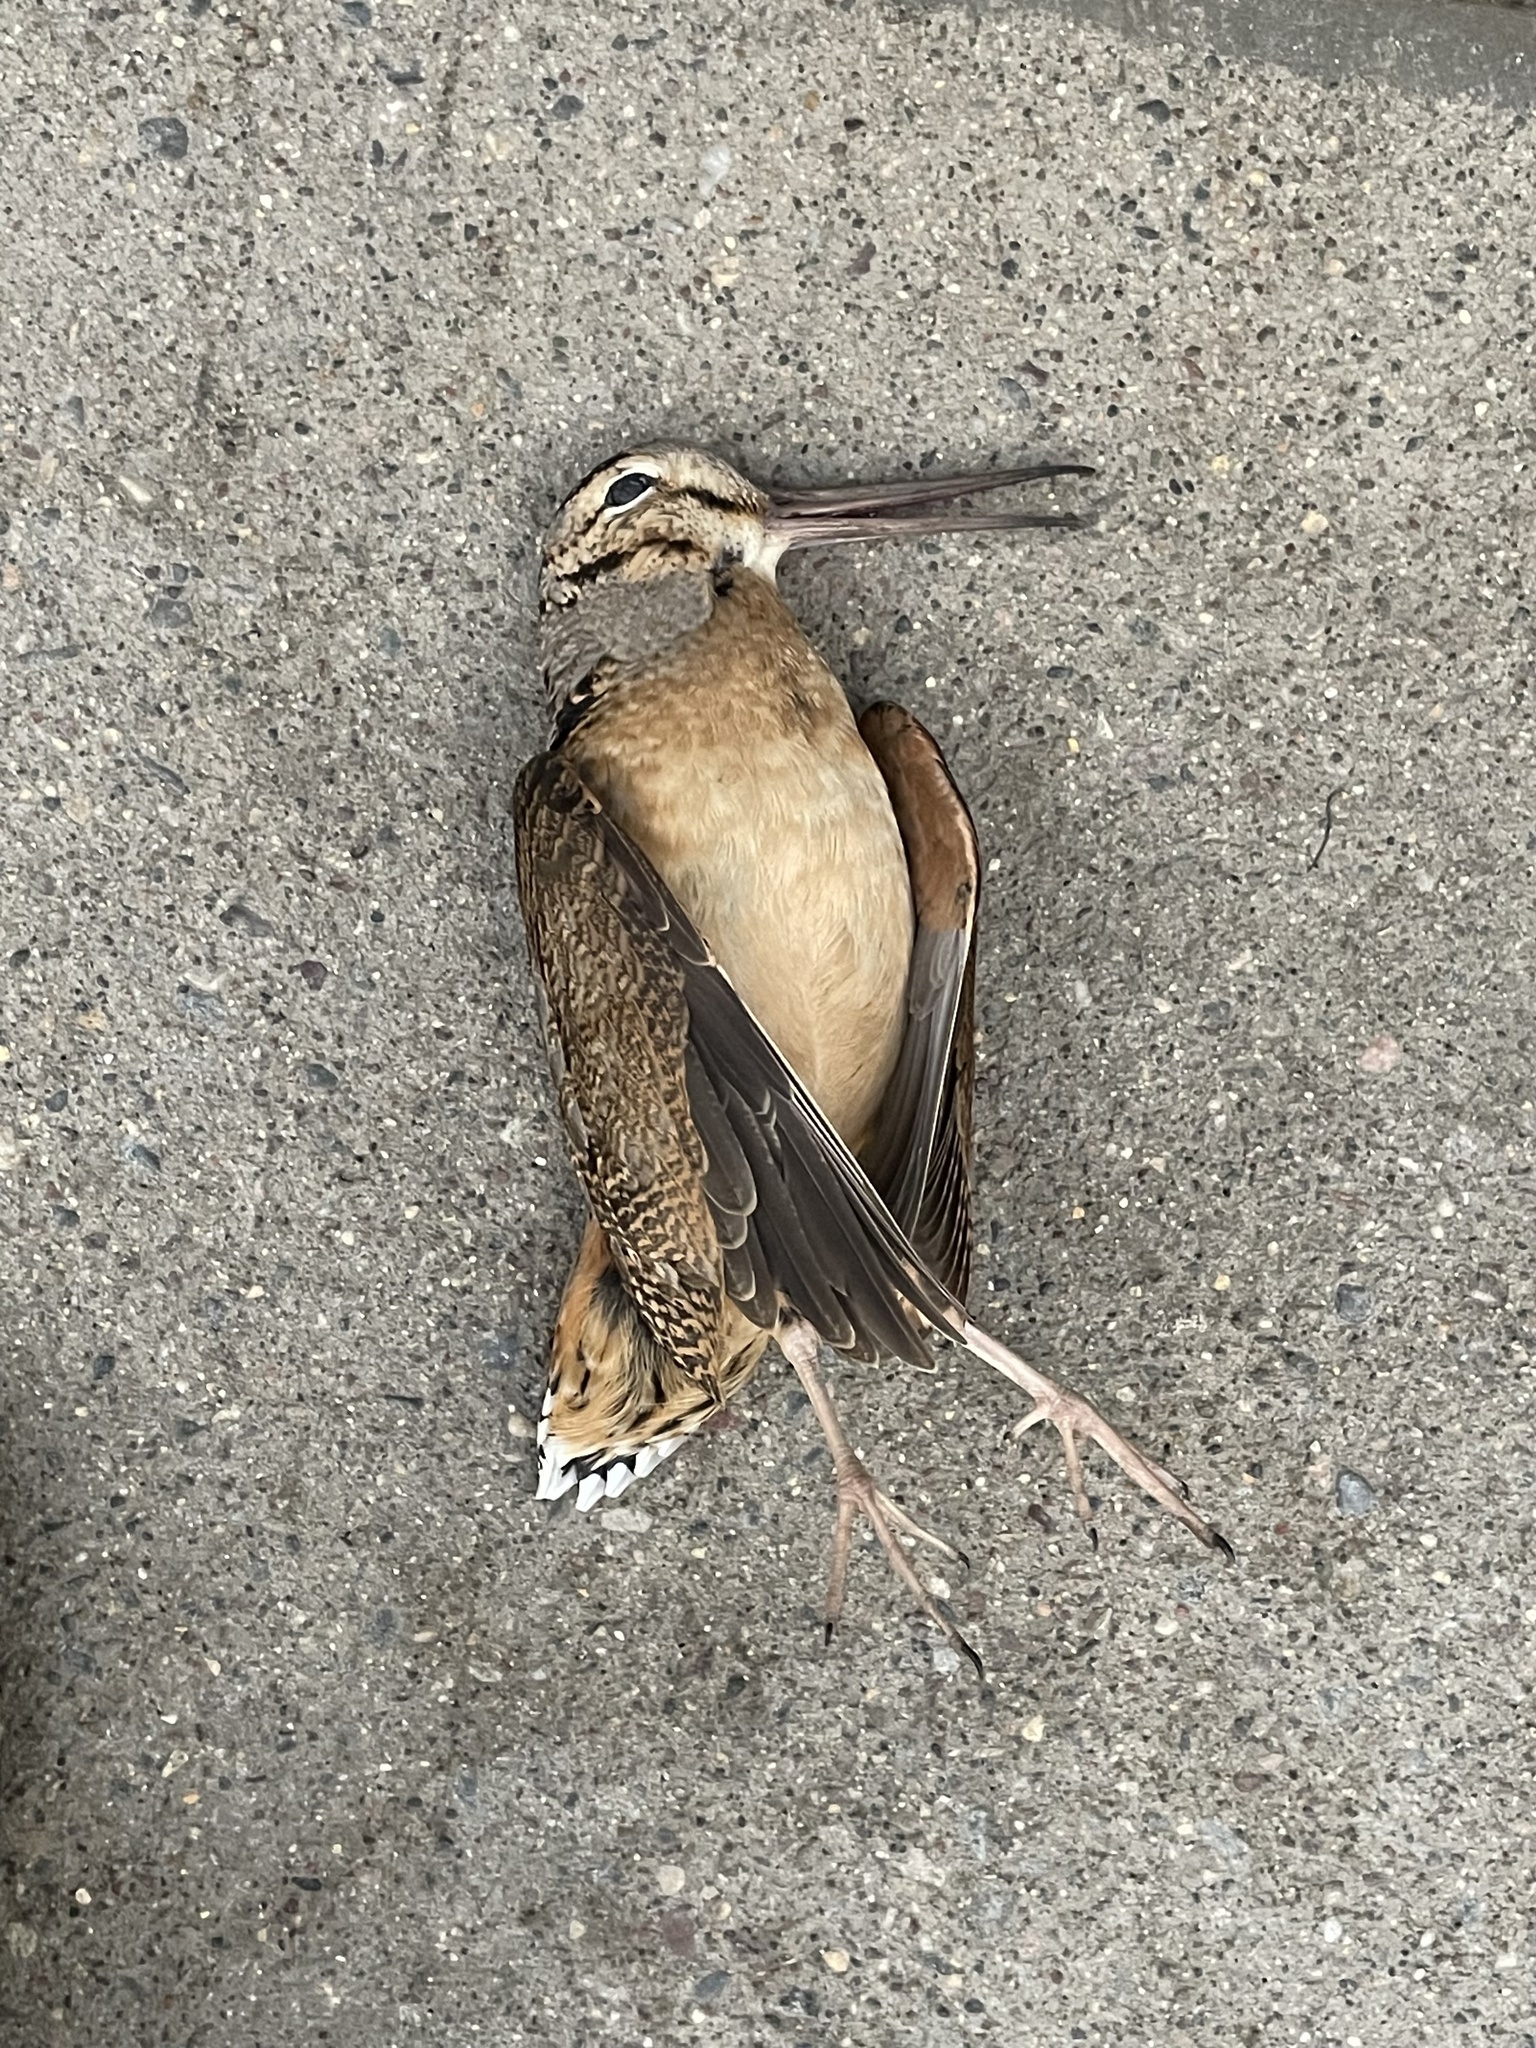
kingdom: Animalia
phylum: Chordata
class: Aves
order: Charadriiformes
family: Scolopacidae
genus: Scolopax
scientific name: Scolopax minor
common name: American woodcock
